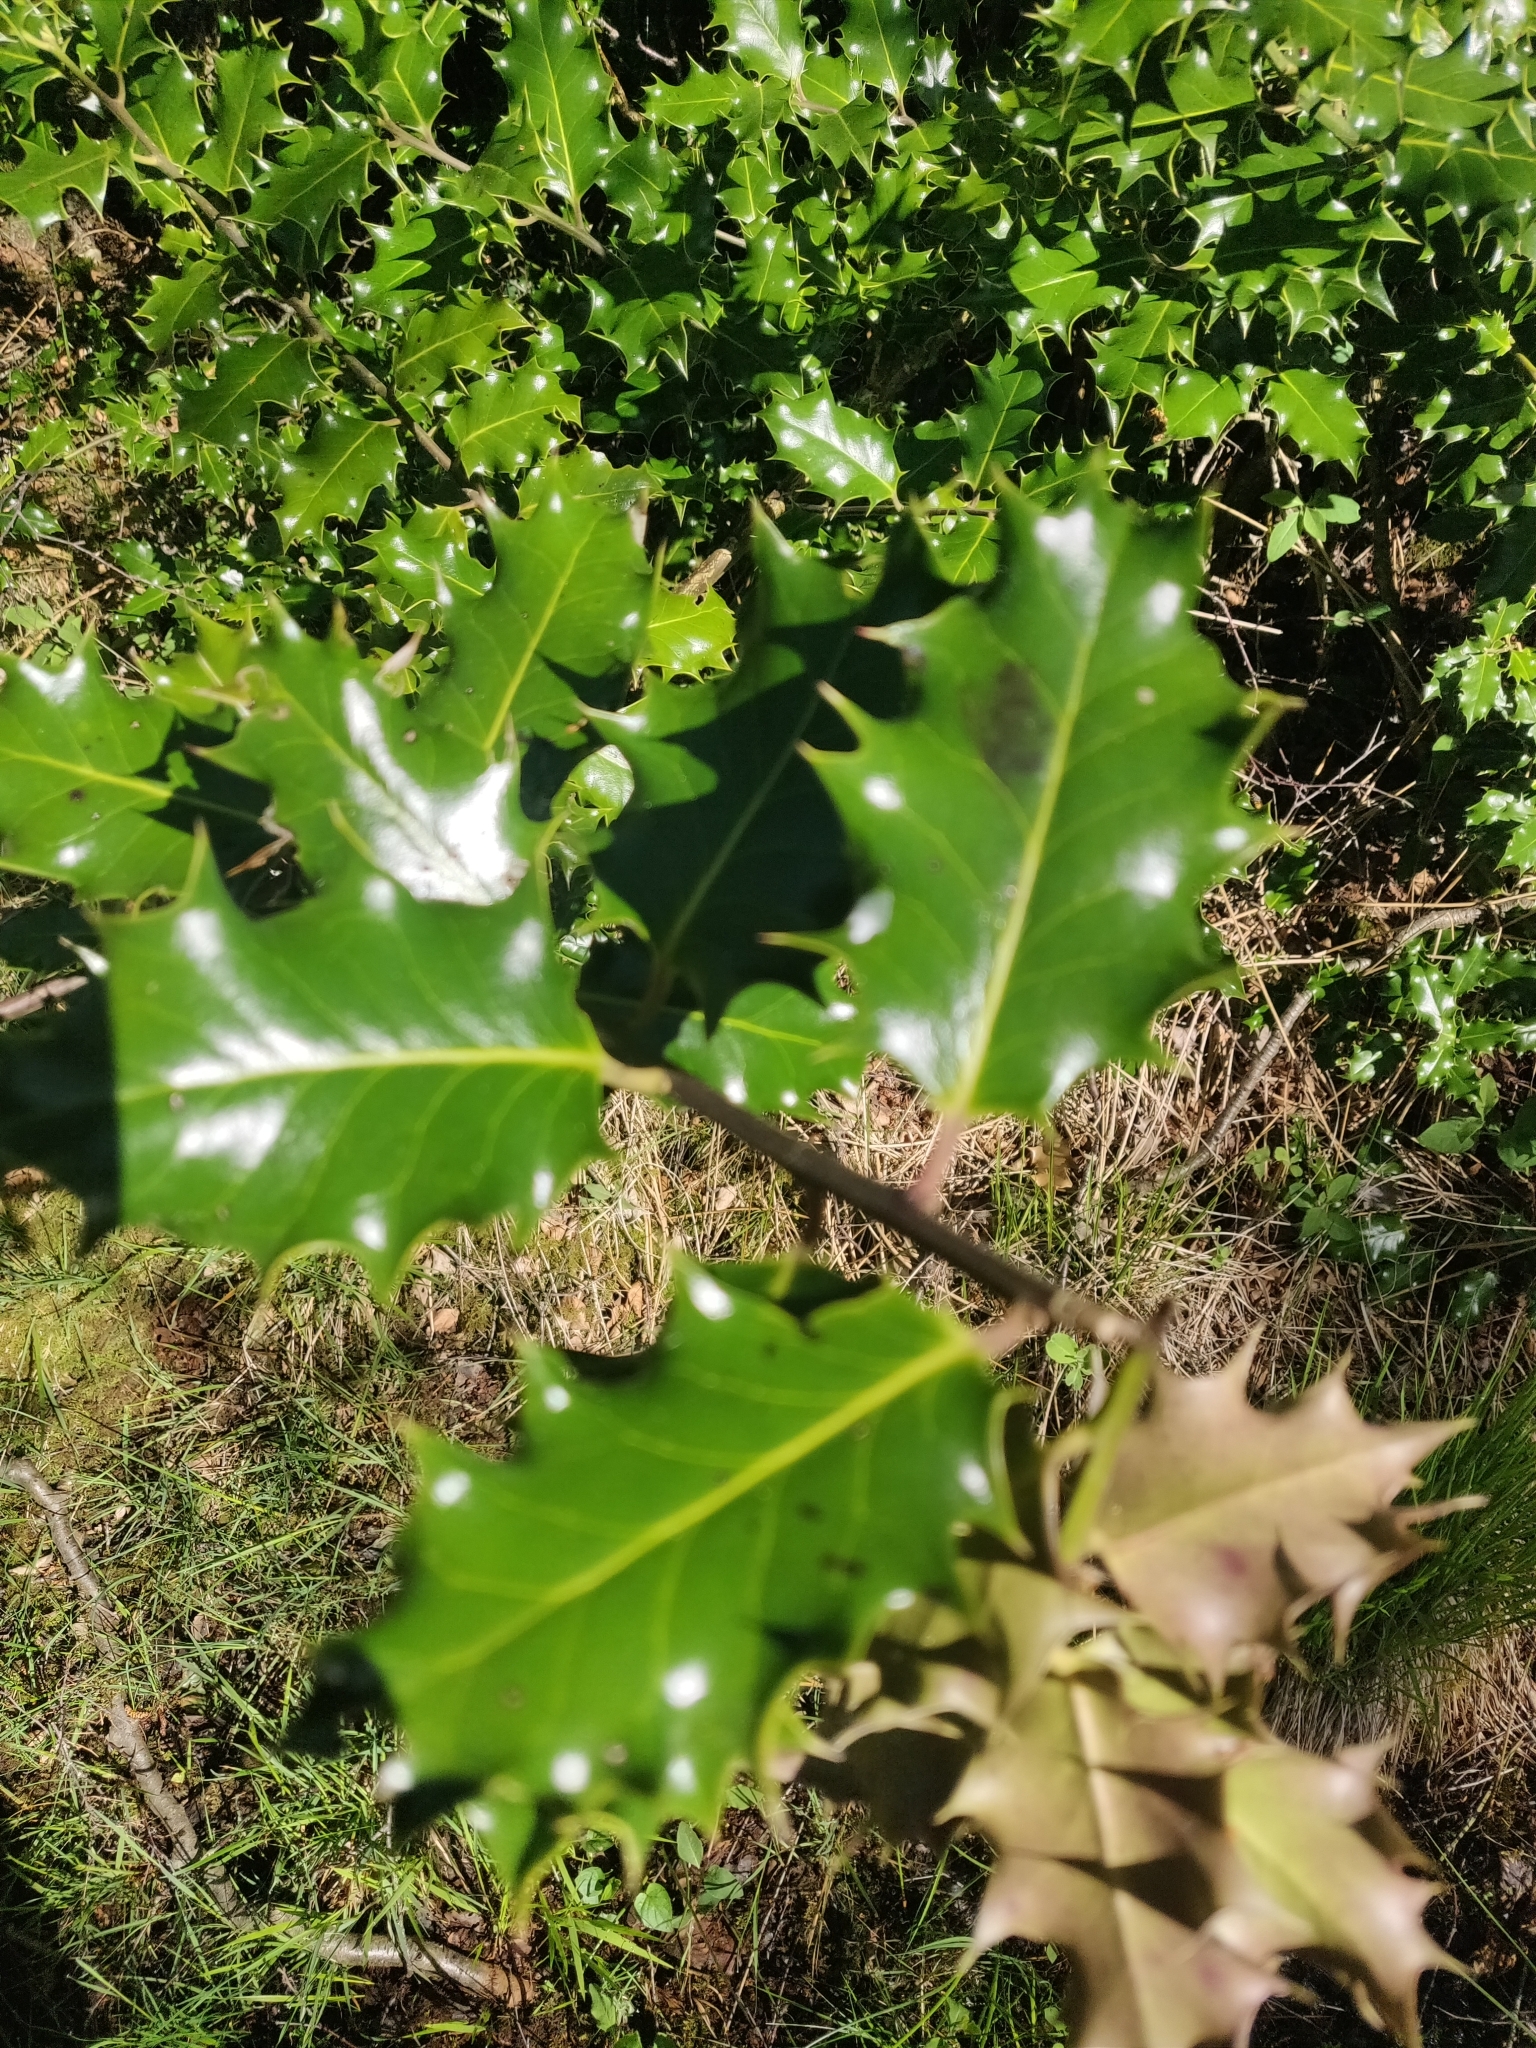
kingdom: Plantae
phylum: Tracheophyta
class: Magnoliopsida
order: Aquifoliales
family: Aquifoliaceae
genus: Ilex
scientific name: Ilex aquifolium
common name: English holly
